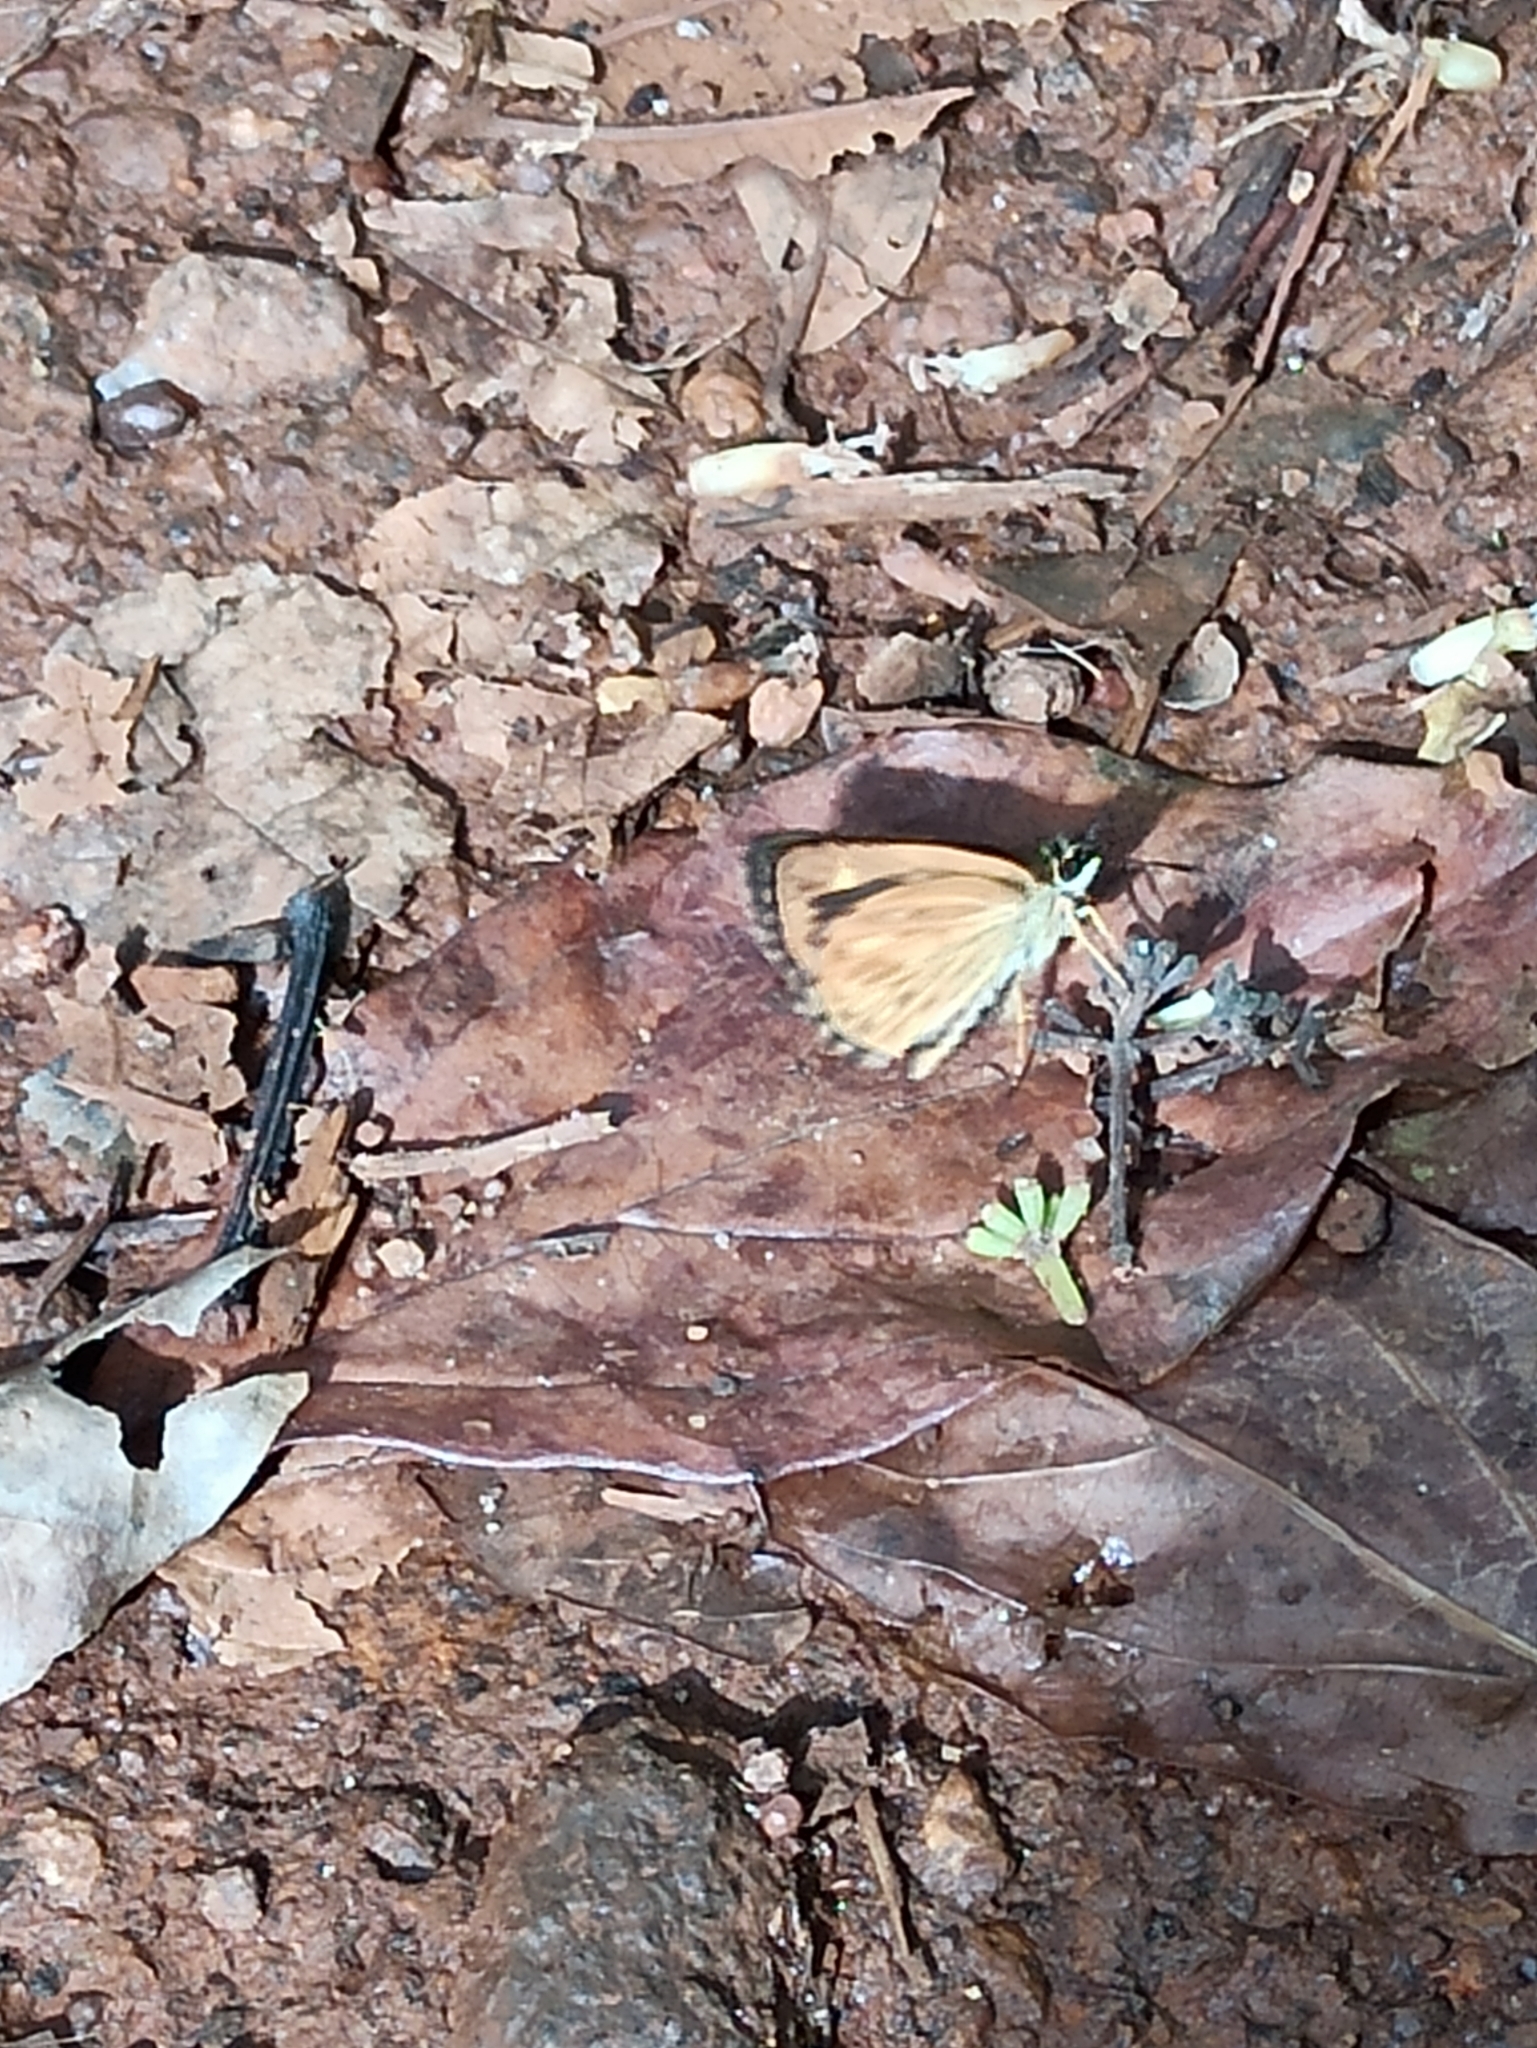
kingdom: Animalia
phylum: Arthropoda
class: Insecta
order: Lepidoptera
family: Hesperiidae
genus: Baracus
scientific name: Baracus vittatus
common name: Hedge-hopper
